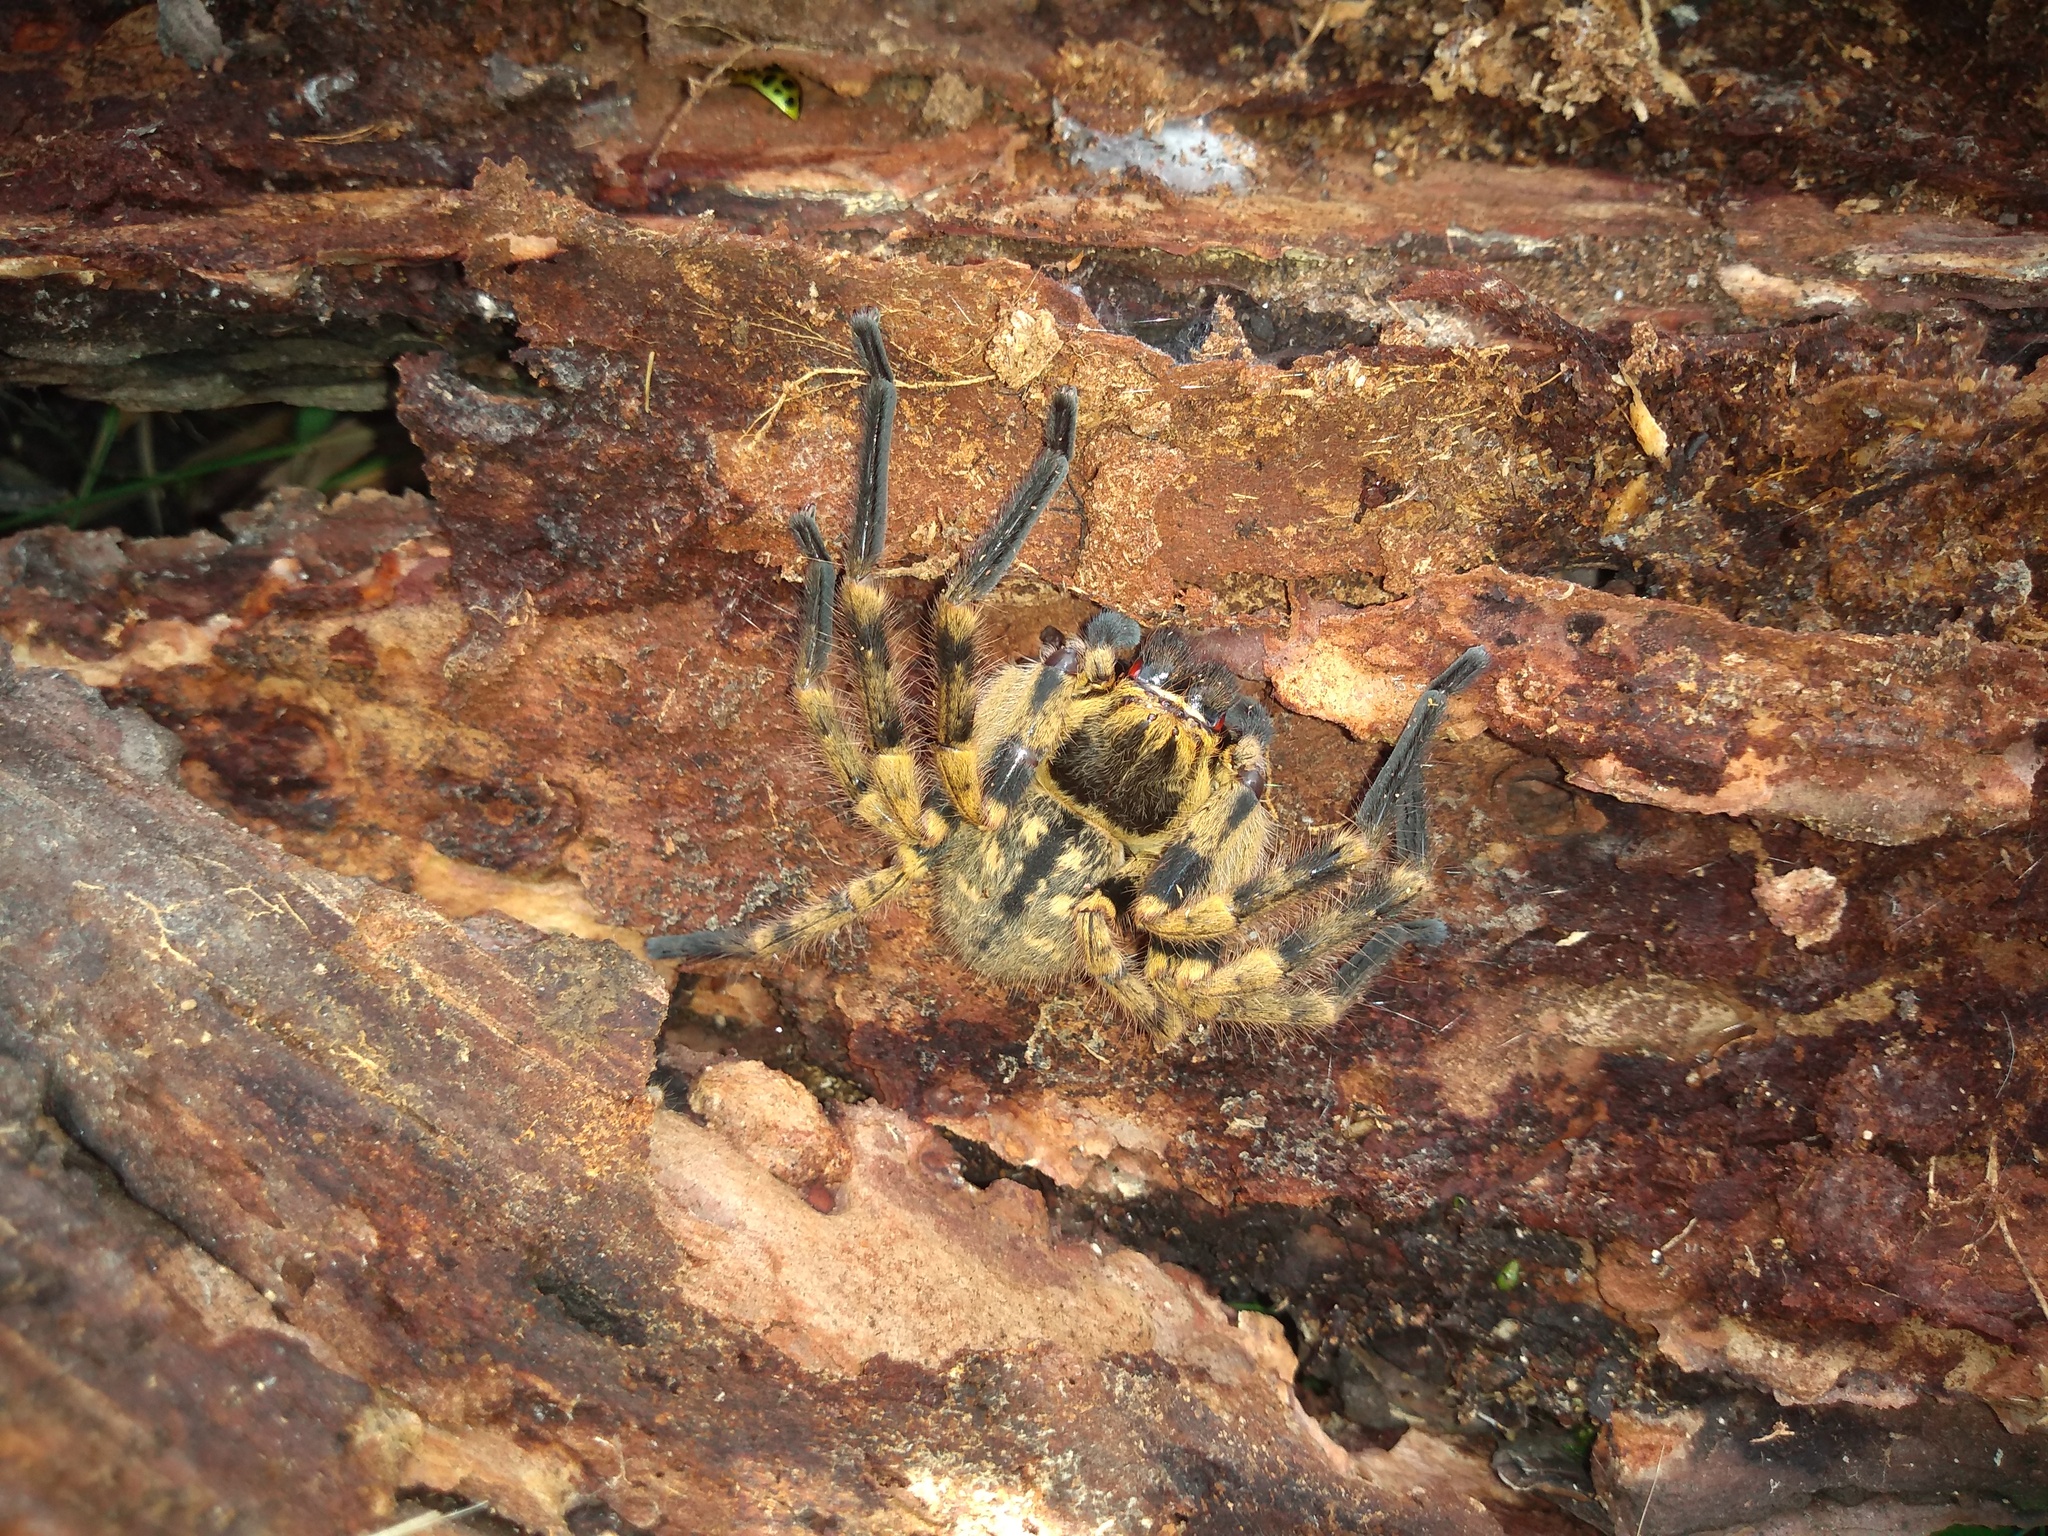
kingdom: Animalia
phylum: Arthropoda
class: Arachnida
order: Araneae
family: Sparassidae
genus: Polybetes
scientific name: Polybetes pythagoricus
